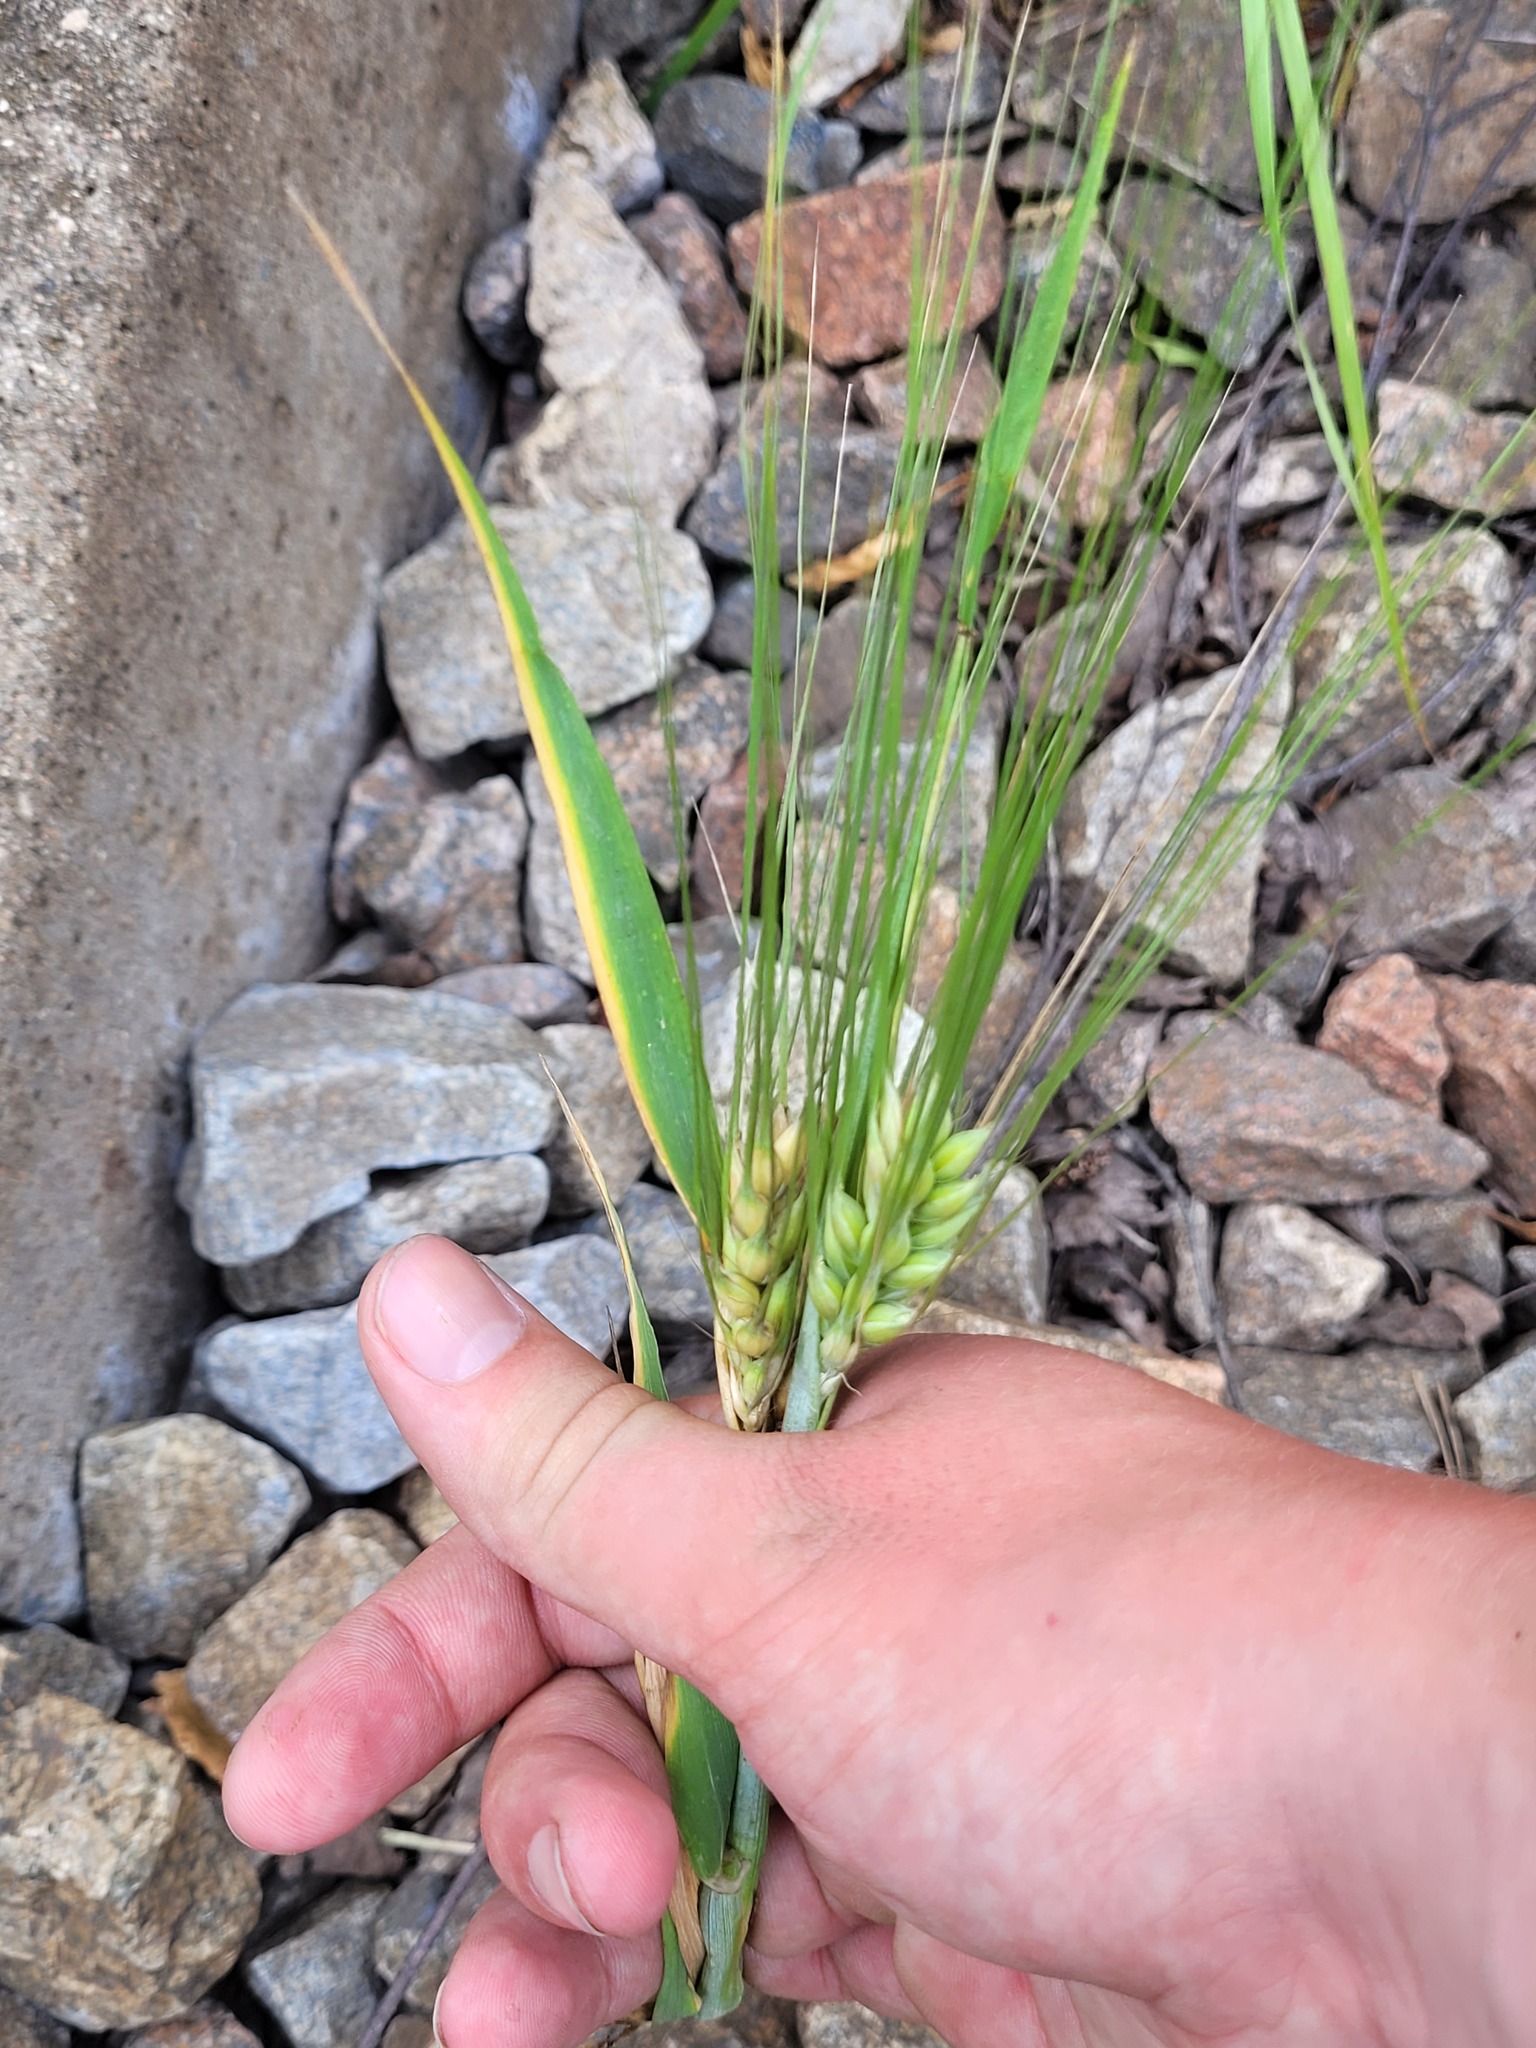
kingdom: Plantae
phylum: Tracheophyta
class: Liliopsida
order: Poales
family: Poaceae
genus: Hordeum
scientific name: Hordeum vulgare
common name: Common barley
